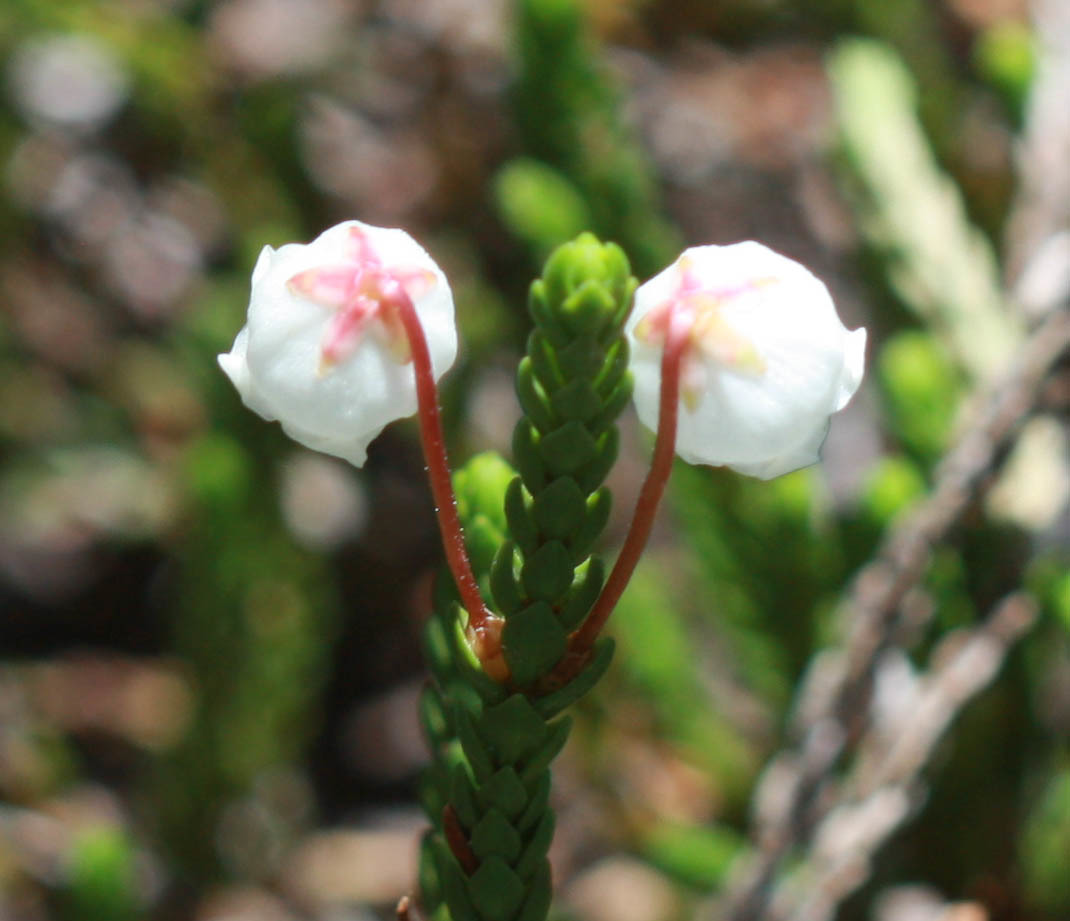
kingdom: Plantae
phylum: Tracheophyta
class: Magnoliopsida
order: Ericales
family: Ericaceae
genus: Cassiope
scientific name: Cassiope mertensiana
